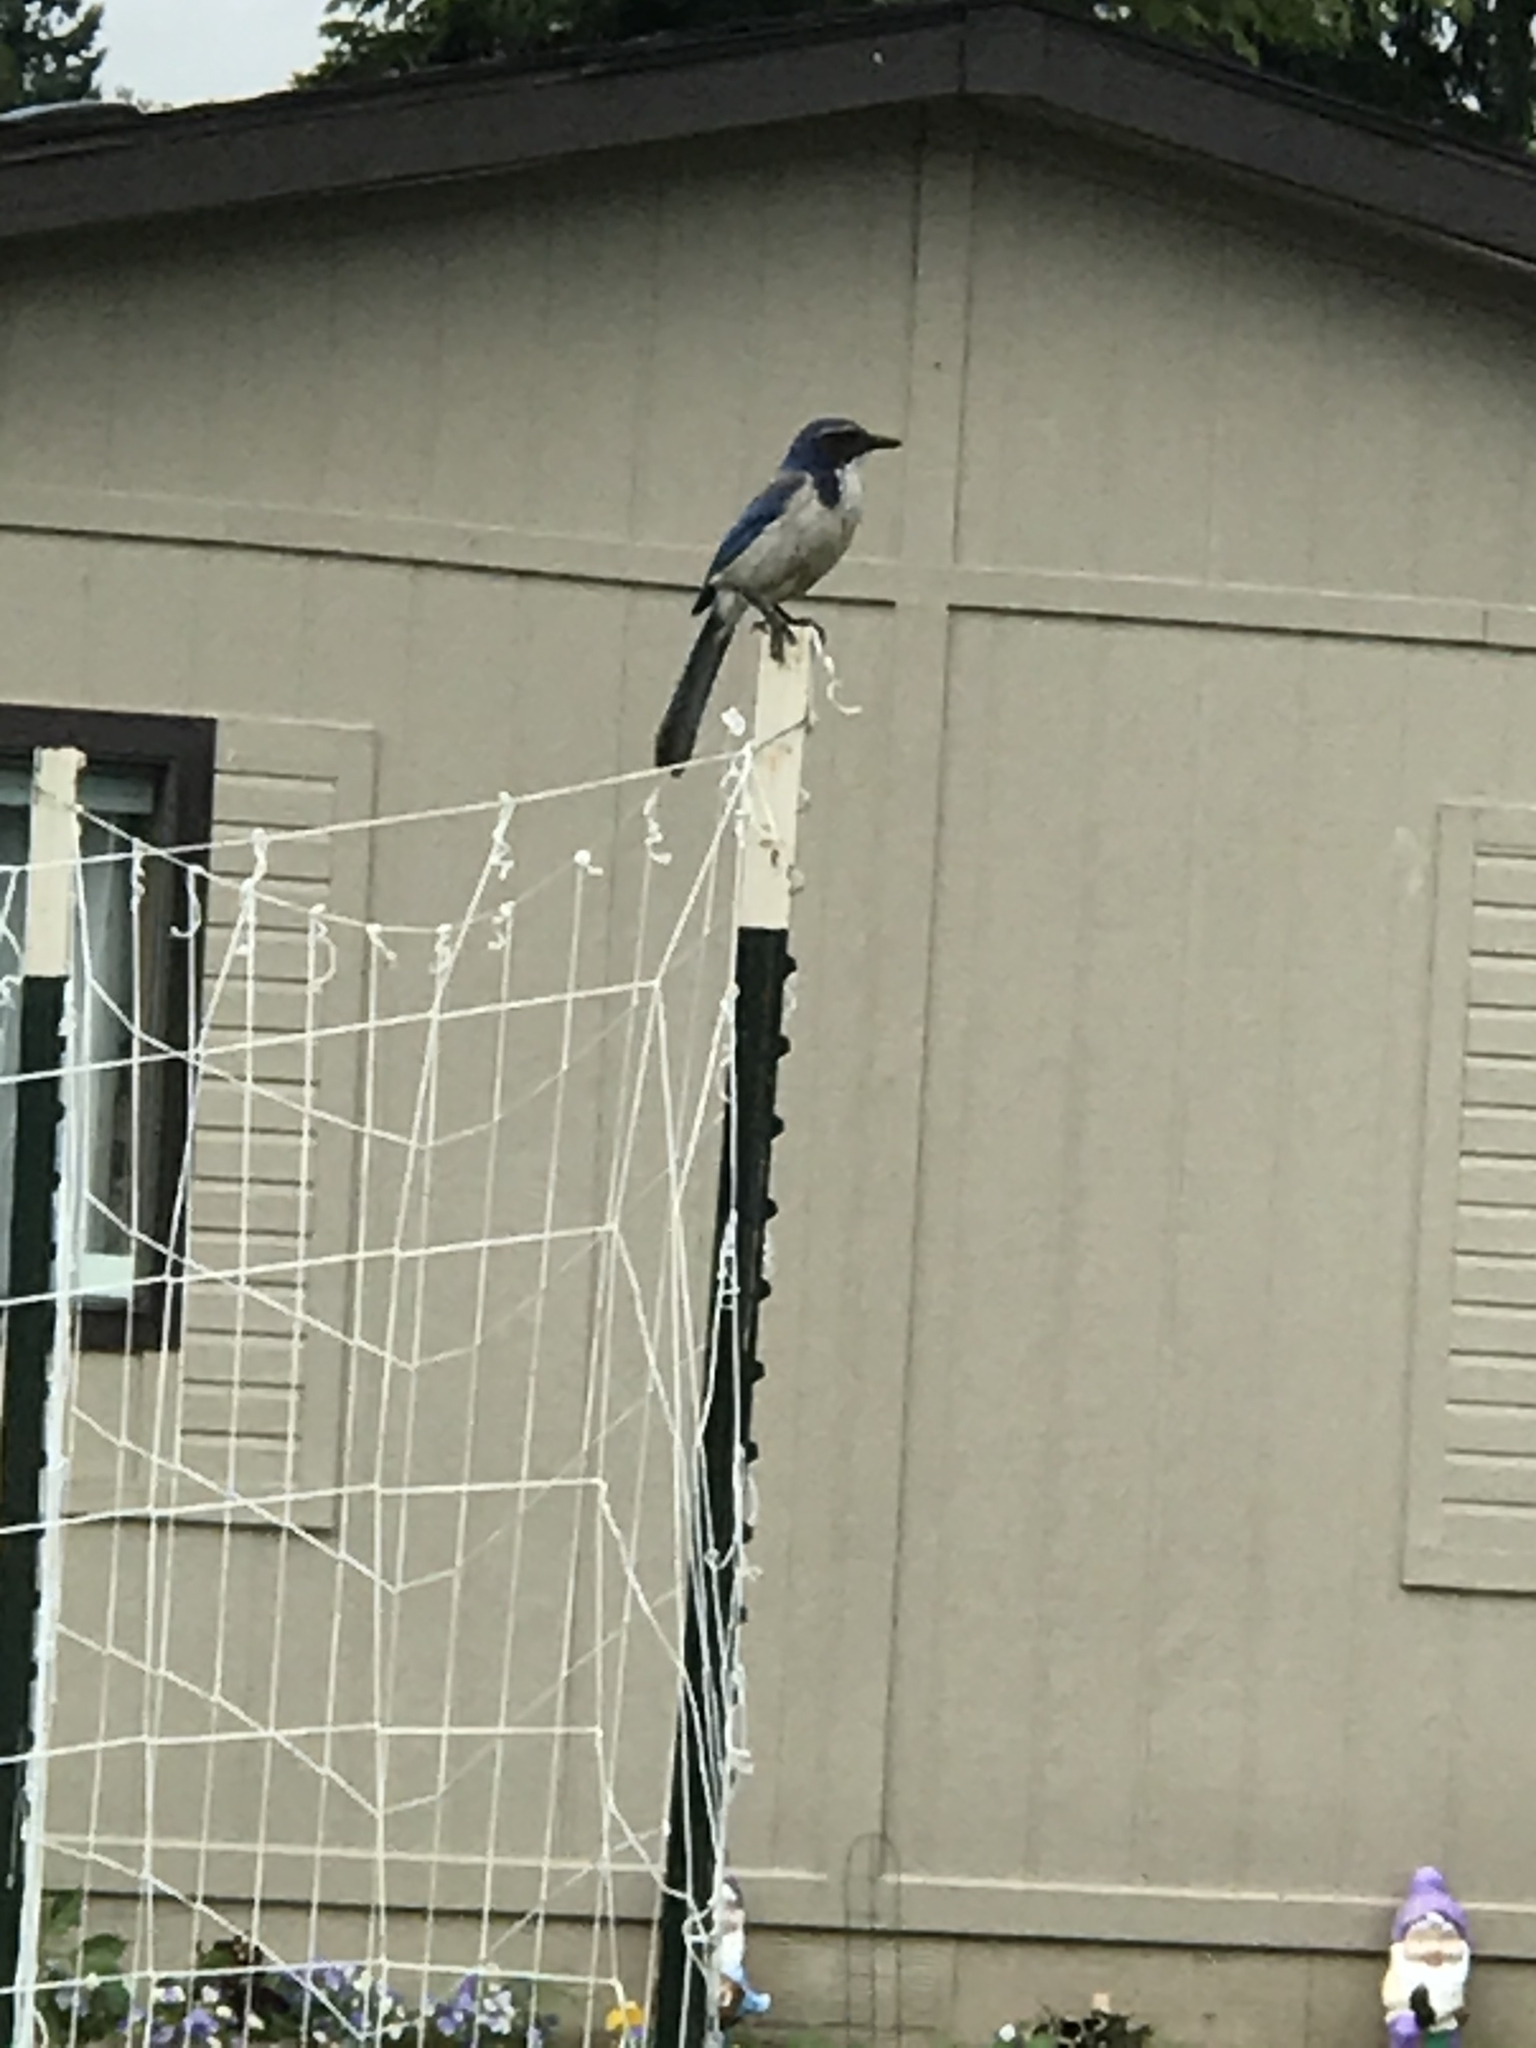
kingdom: Animalia
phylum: Chordata
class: Aves
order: Passeriformes
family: Corvidae
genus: Aphelocoma
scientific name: Aphelocoma californica
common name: California scrub-jay
